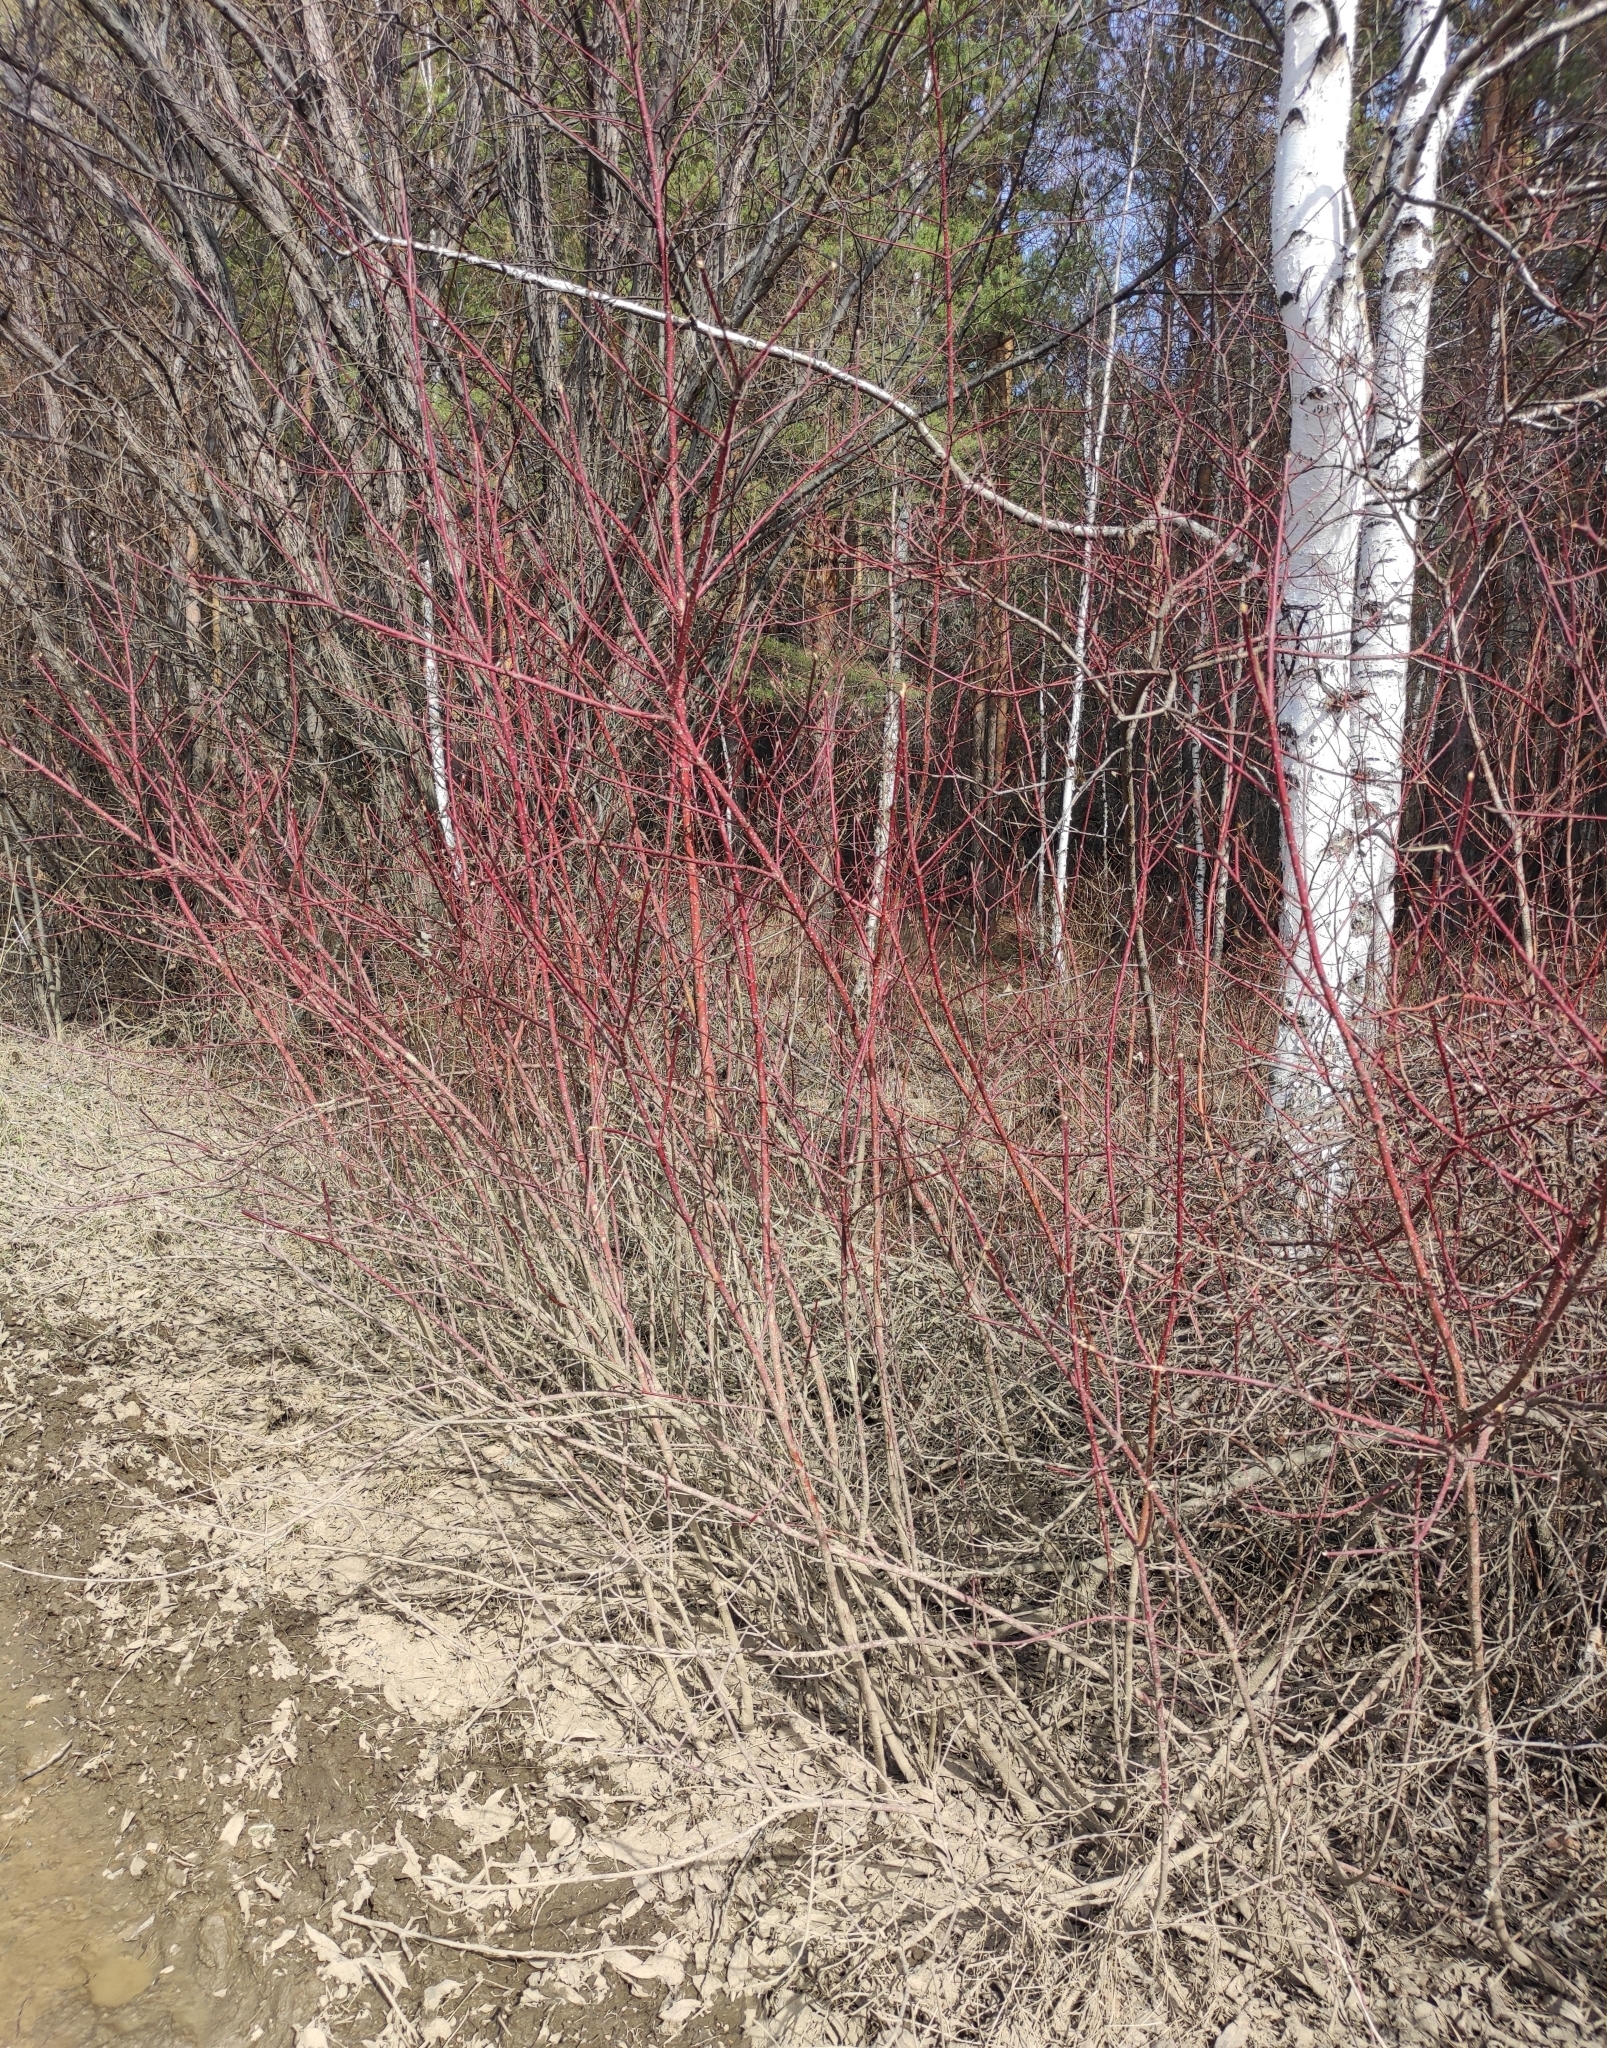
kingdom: Plantae
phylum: Tracheophyta
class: Magnoliopsida
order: Cornales
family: Cornaceae
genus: Cornus
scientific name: Cornus alba
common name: White dogwood
